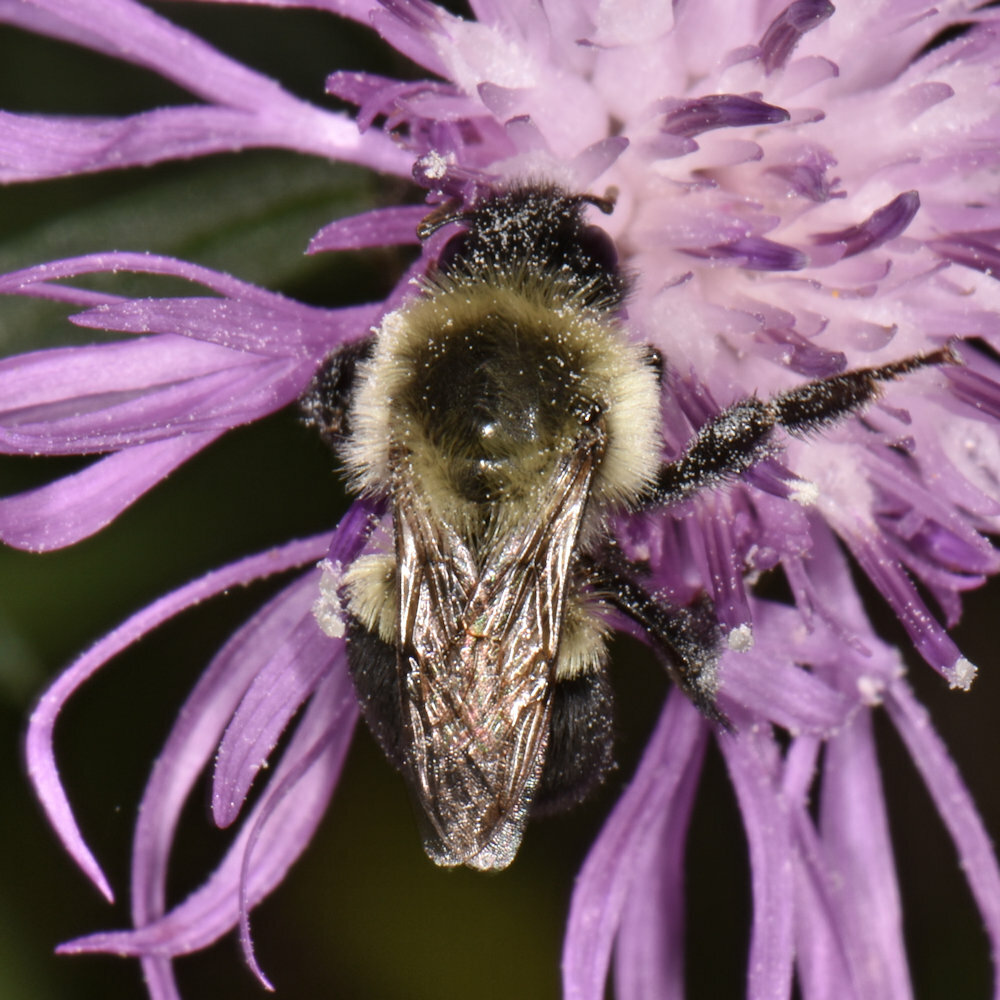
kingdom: Animalia
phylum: Arthropoda
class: Insecta
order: Hymenoptera
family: Apidae
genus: Bombus
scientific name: Bombus impatiens
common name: Common eastern bumble bee
